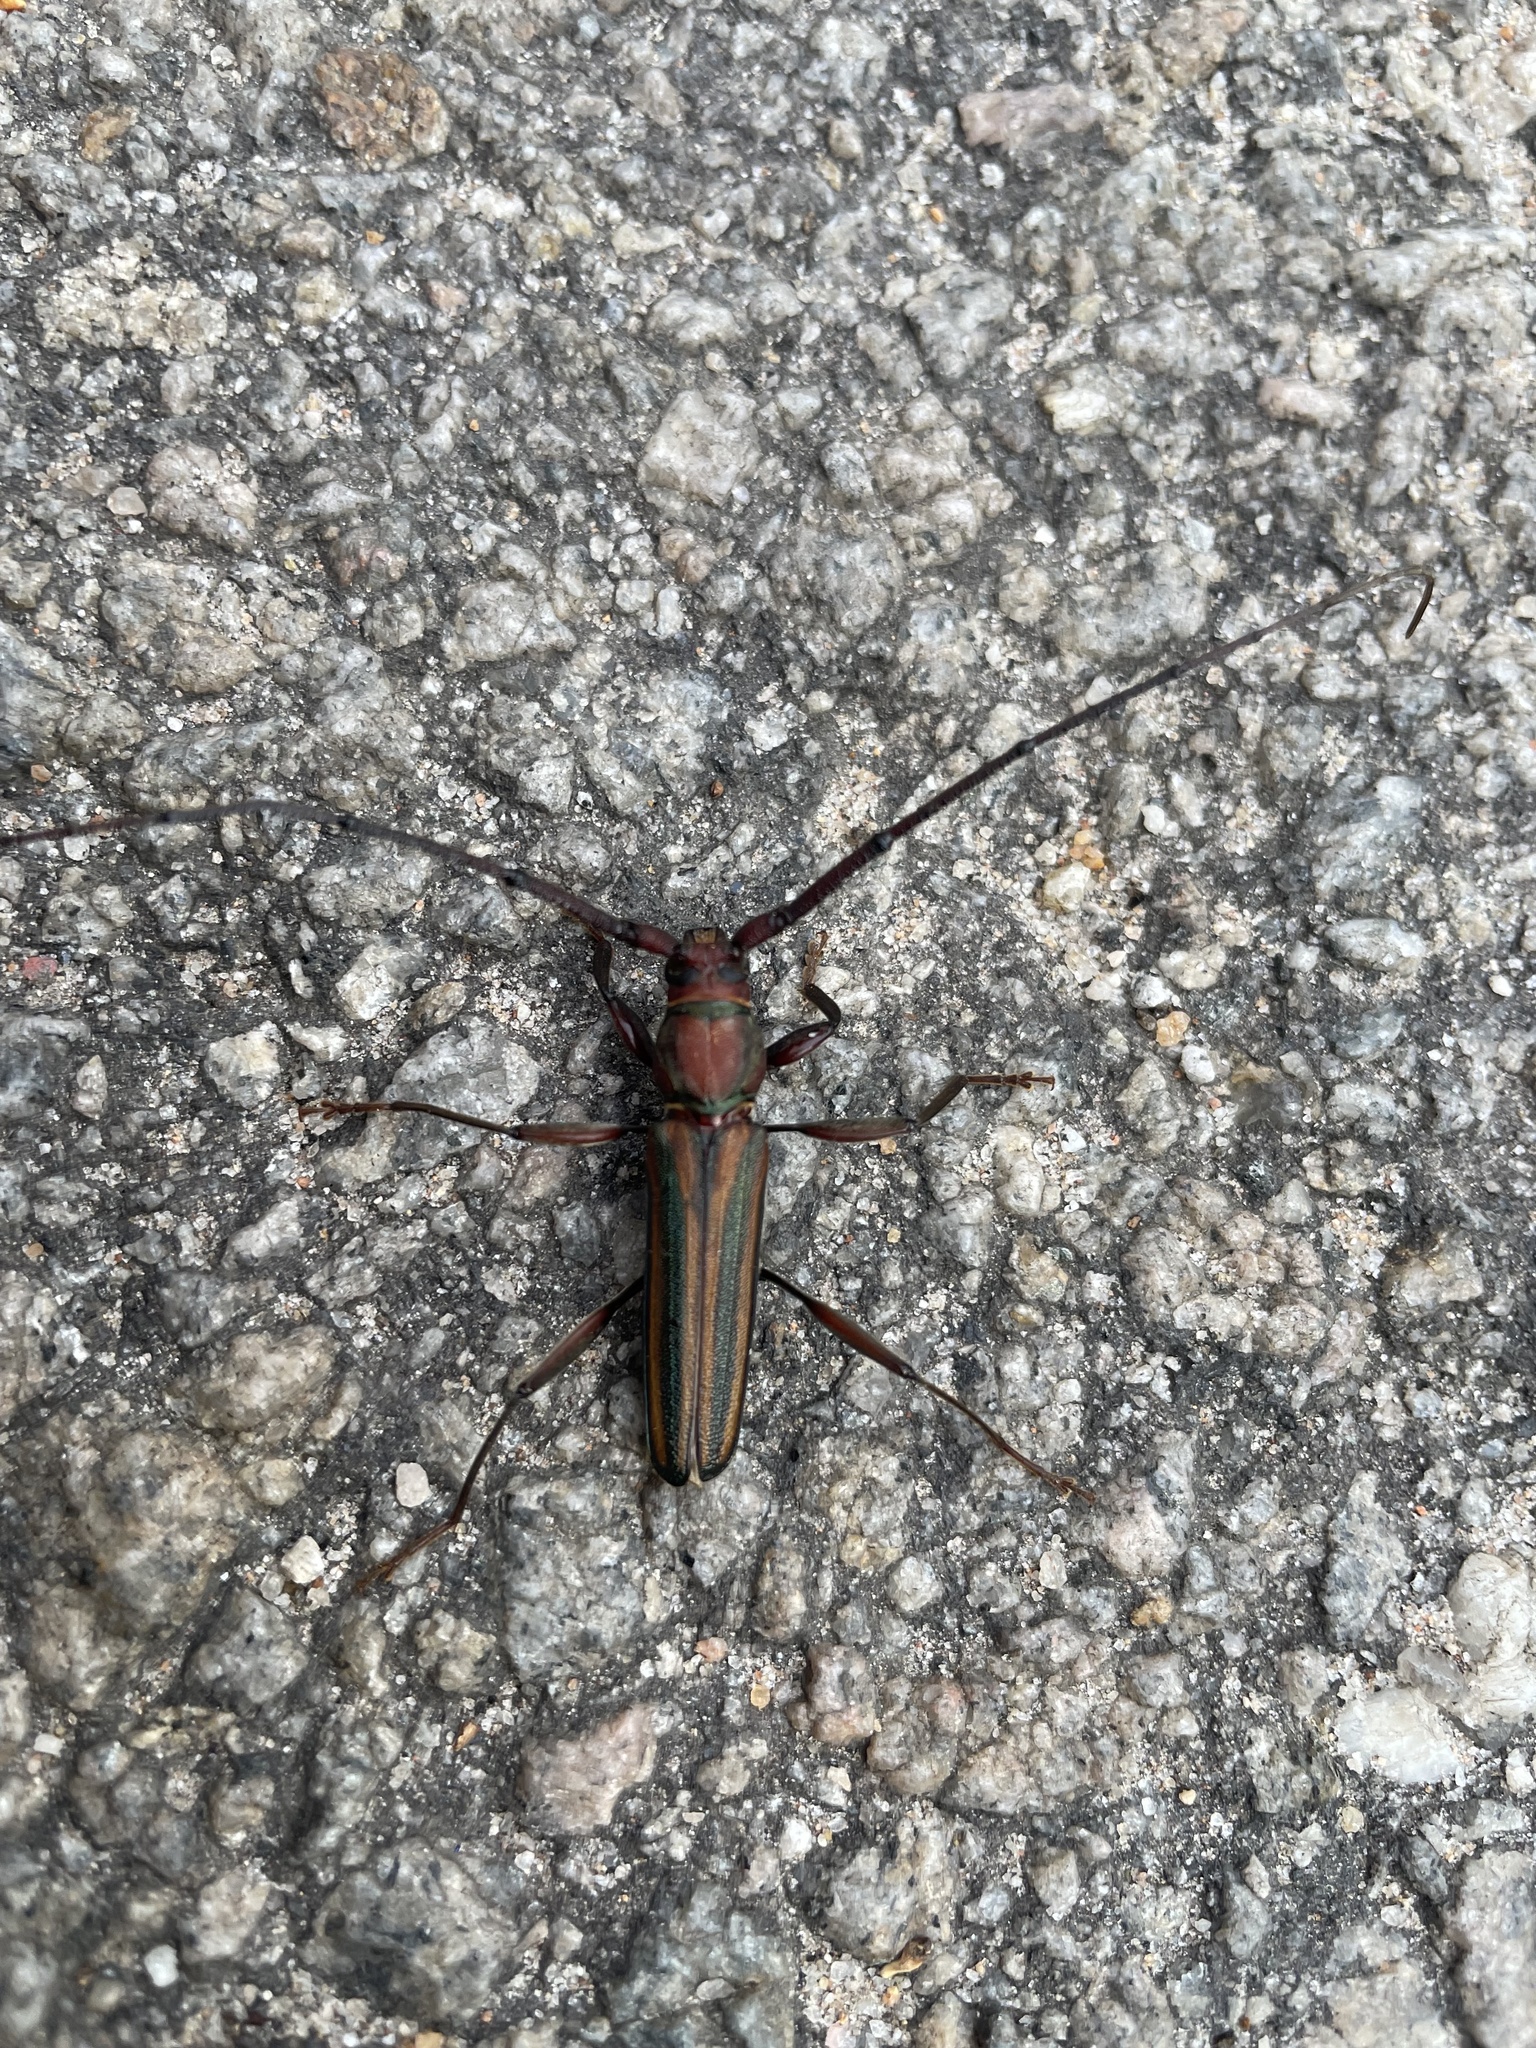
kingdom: Animalia
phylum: Arthropoda
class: Insecta
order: Coleoptera
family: Cerambycidae
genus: Xystrocera
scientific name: Xystrocera globosa
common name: Peach-tree longhorn
